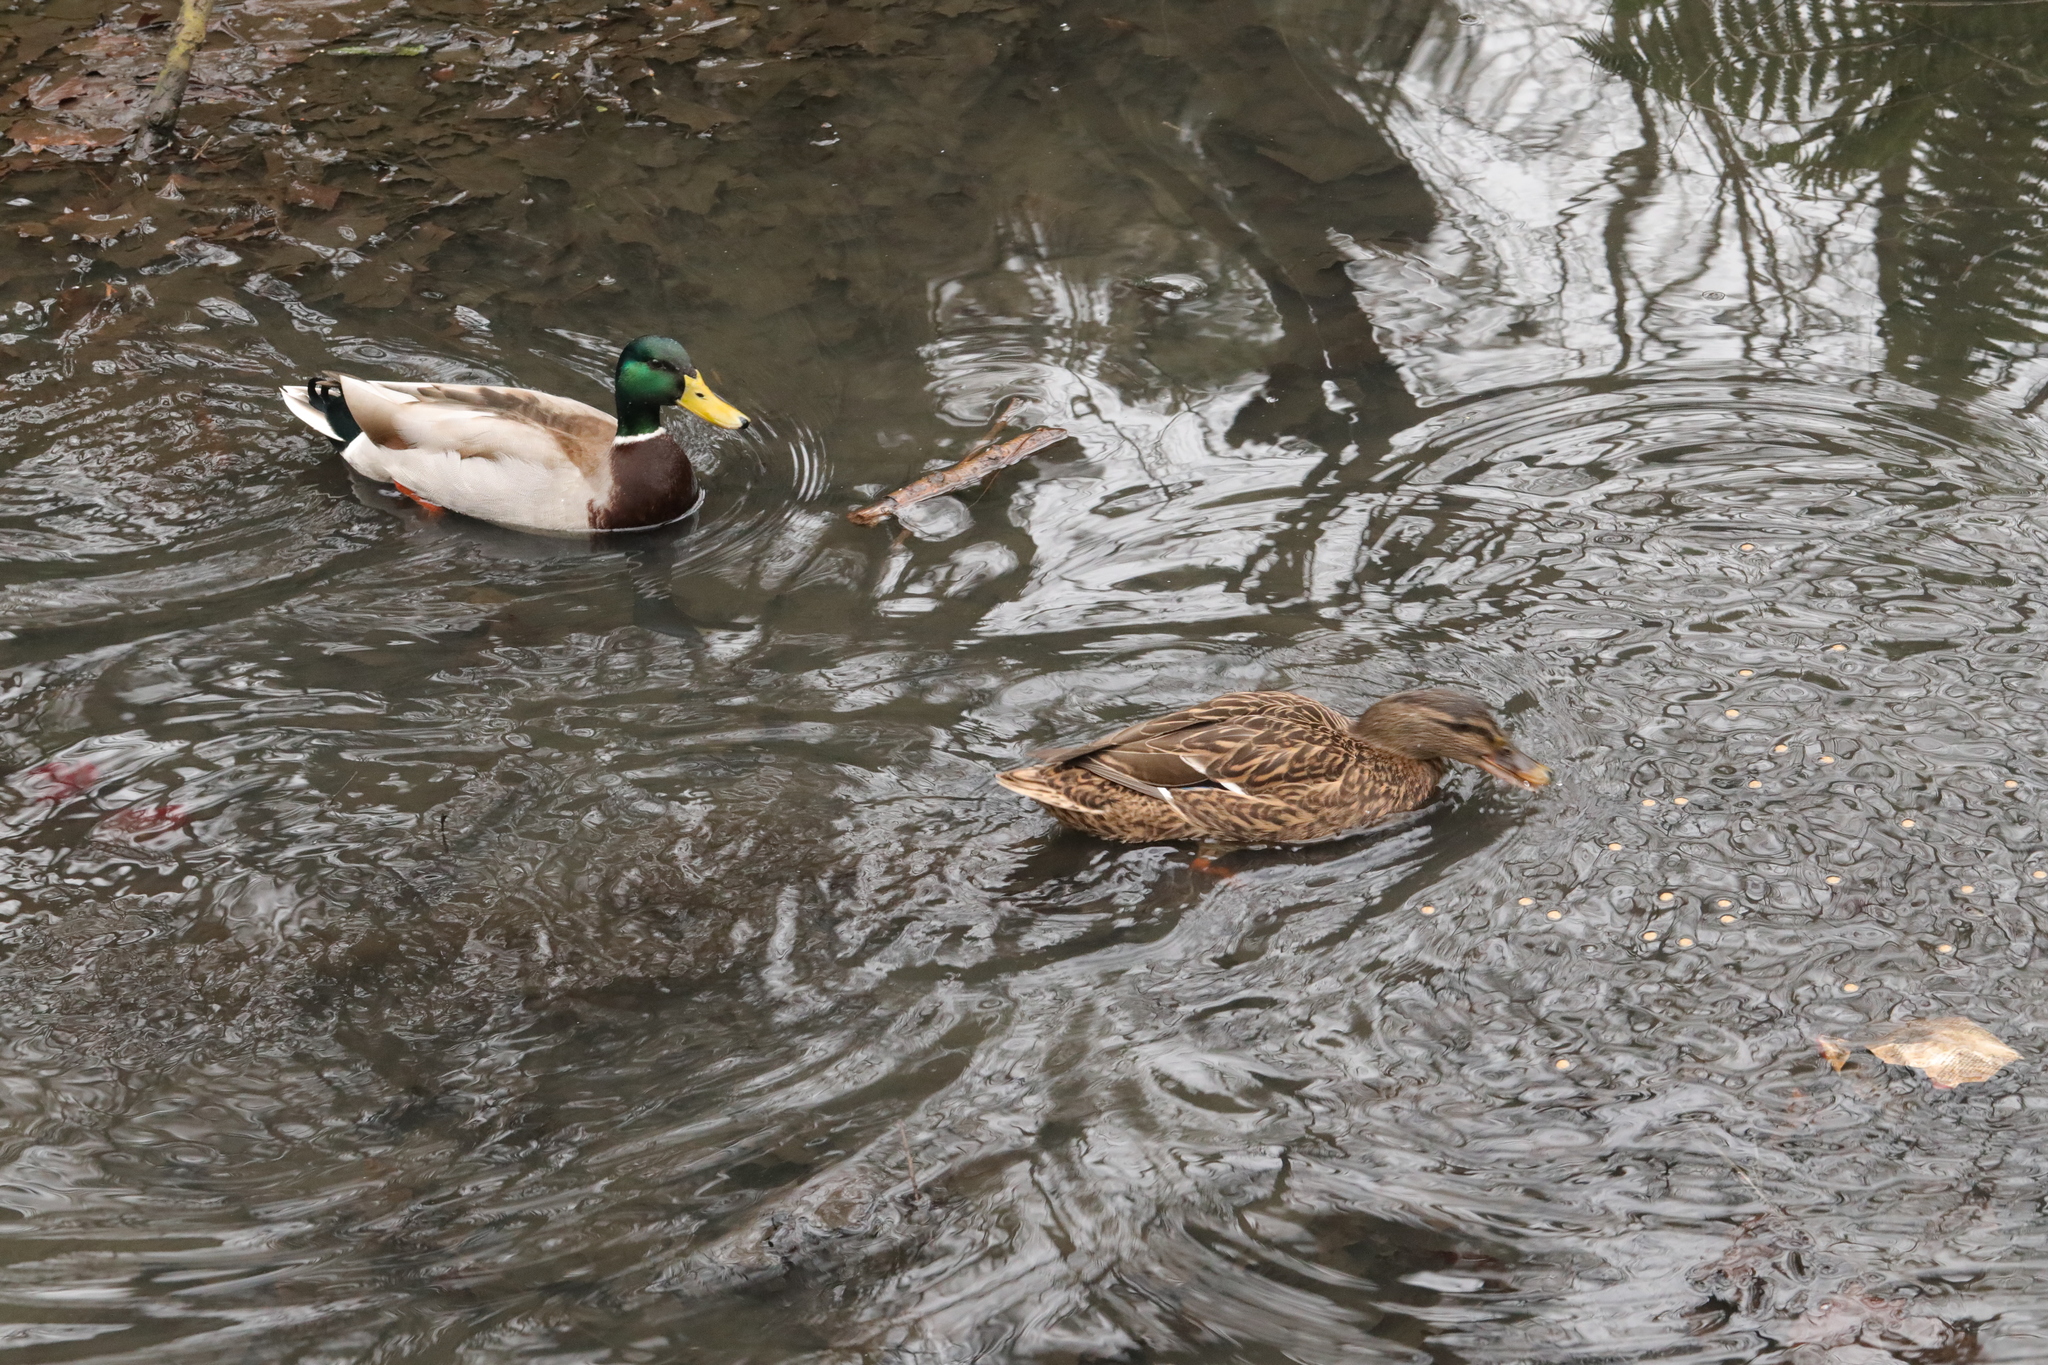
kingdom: Animalia
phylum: Chordata
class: Aves
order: Anseriformes
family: Anatidae
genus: Anas
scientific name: Anas platyrhynchos
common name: Mallard
